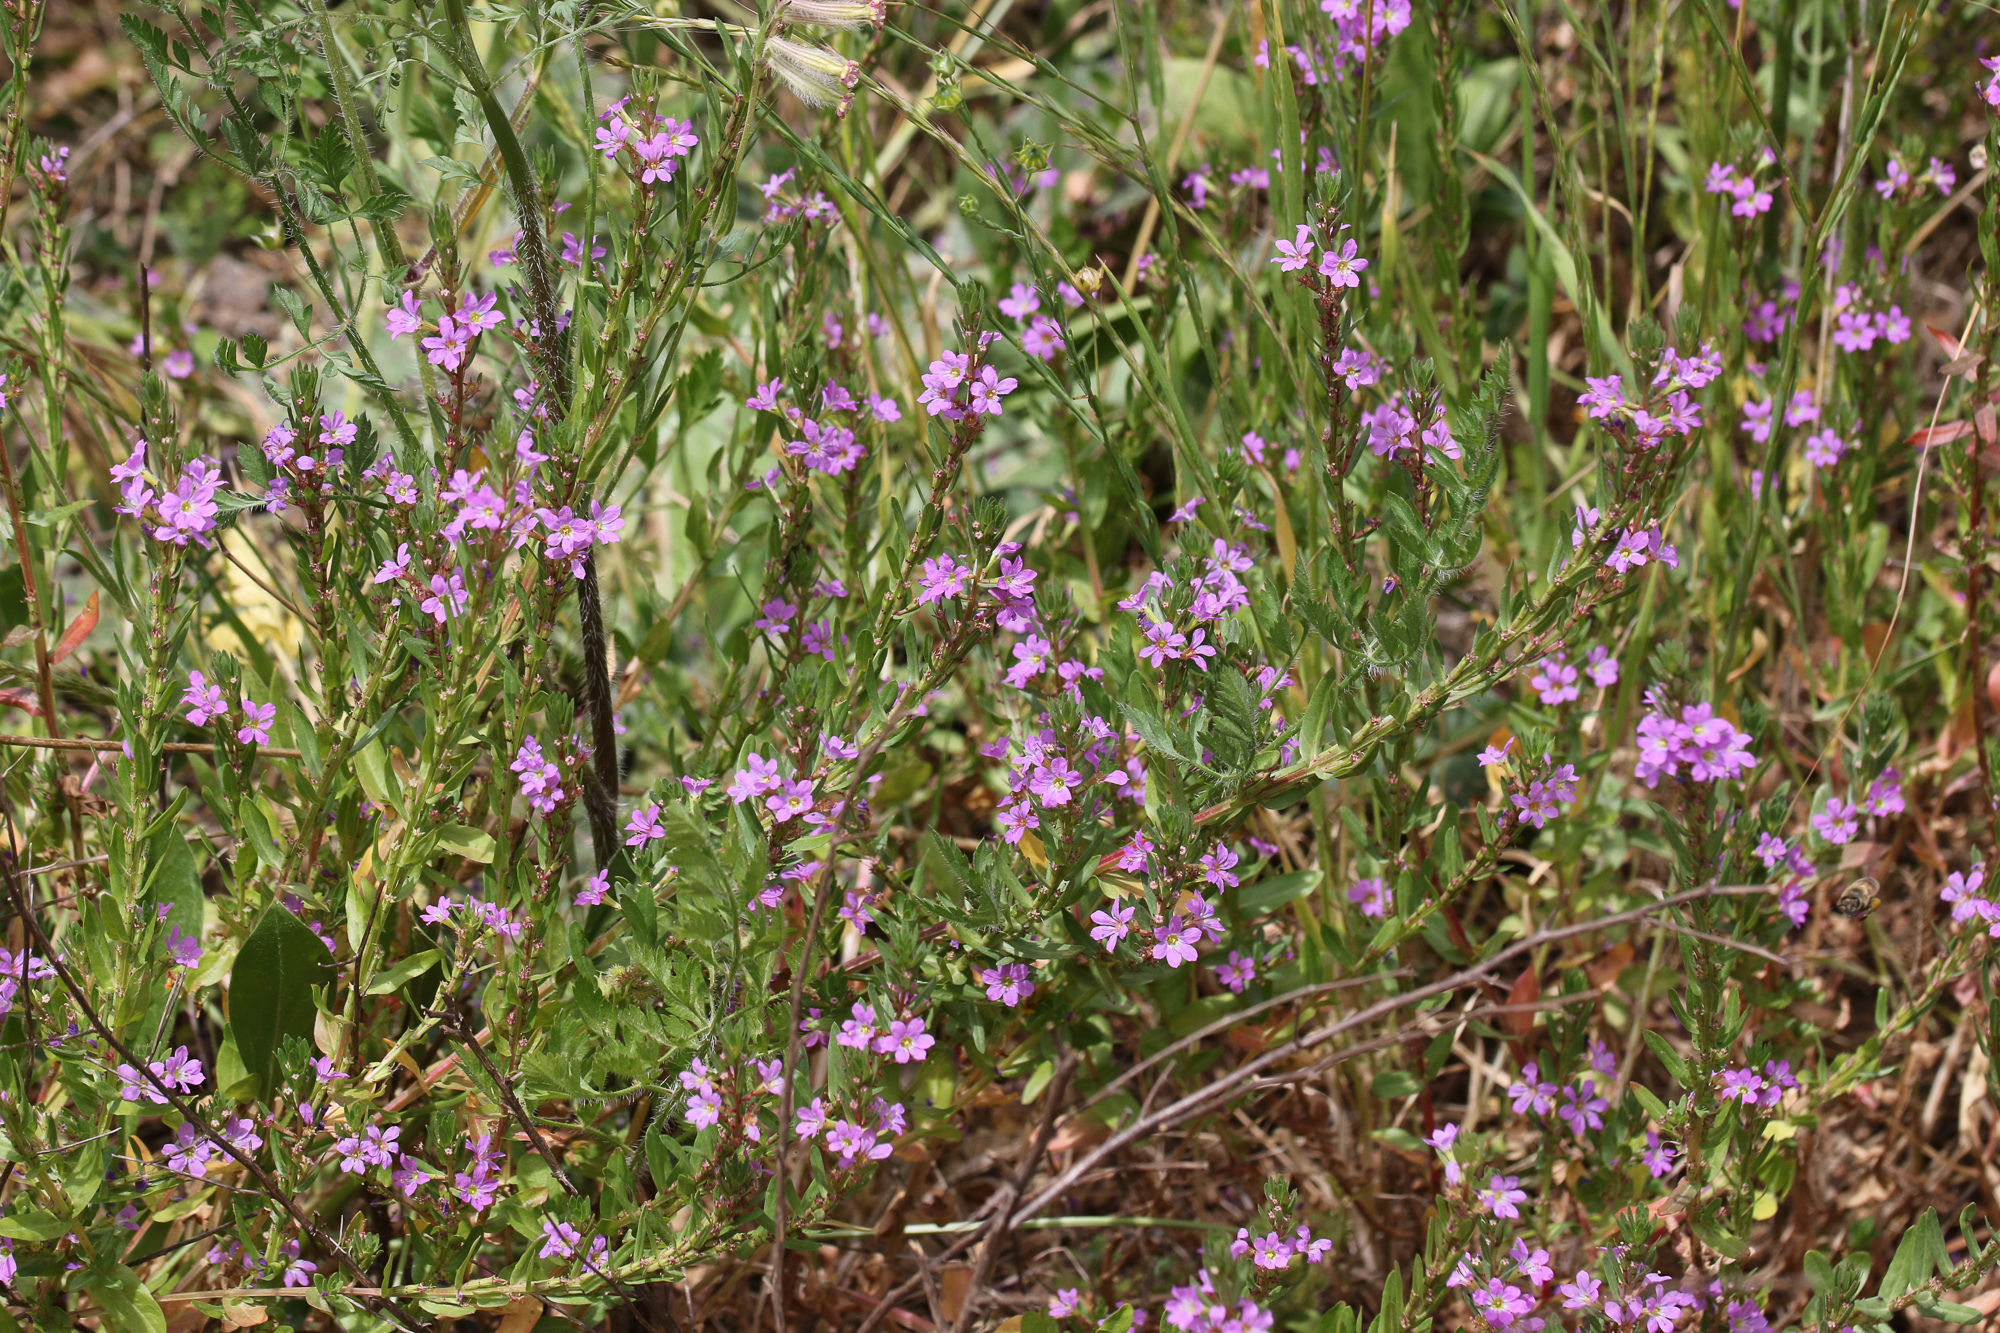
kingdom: Plantae
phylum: Tracheophyta
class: Magnoliopsida
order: Myrtales
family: Lythraceae
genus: Lythrum
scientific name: Lythrum junceum
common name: False grass-poly
